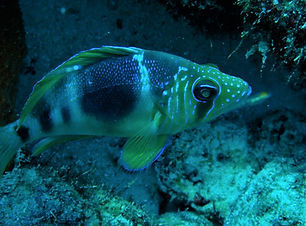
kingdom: Animalia
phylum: Chordata
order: Perciformes
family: Serranidae
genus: Hypoplectrus
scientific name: Hypoplectrus puella
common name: Barred hamlet
